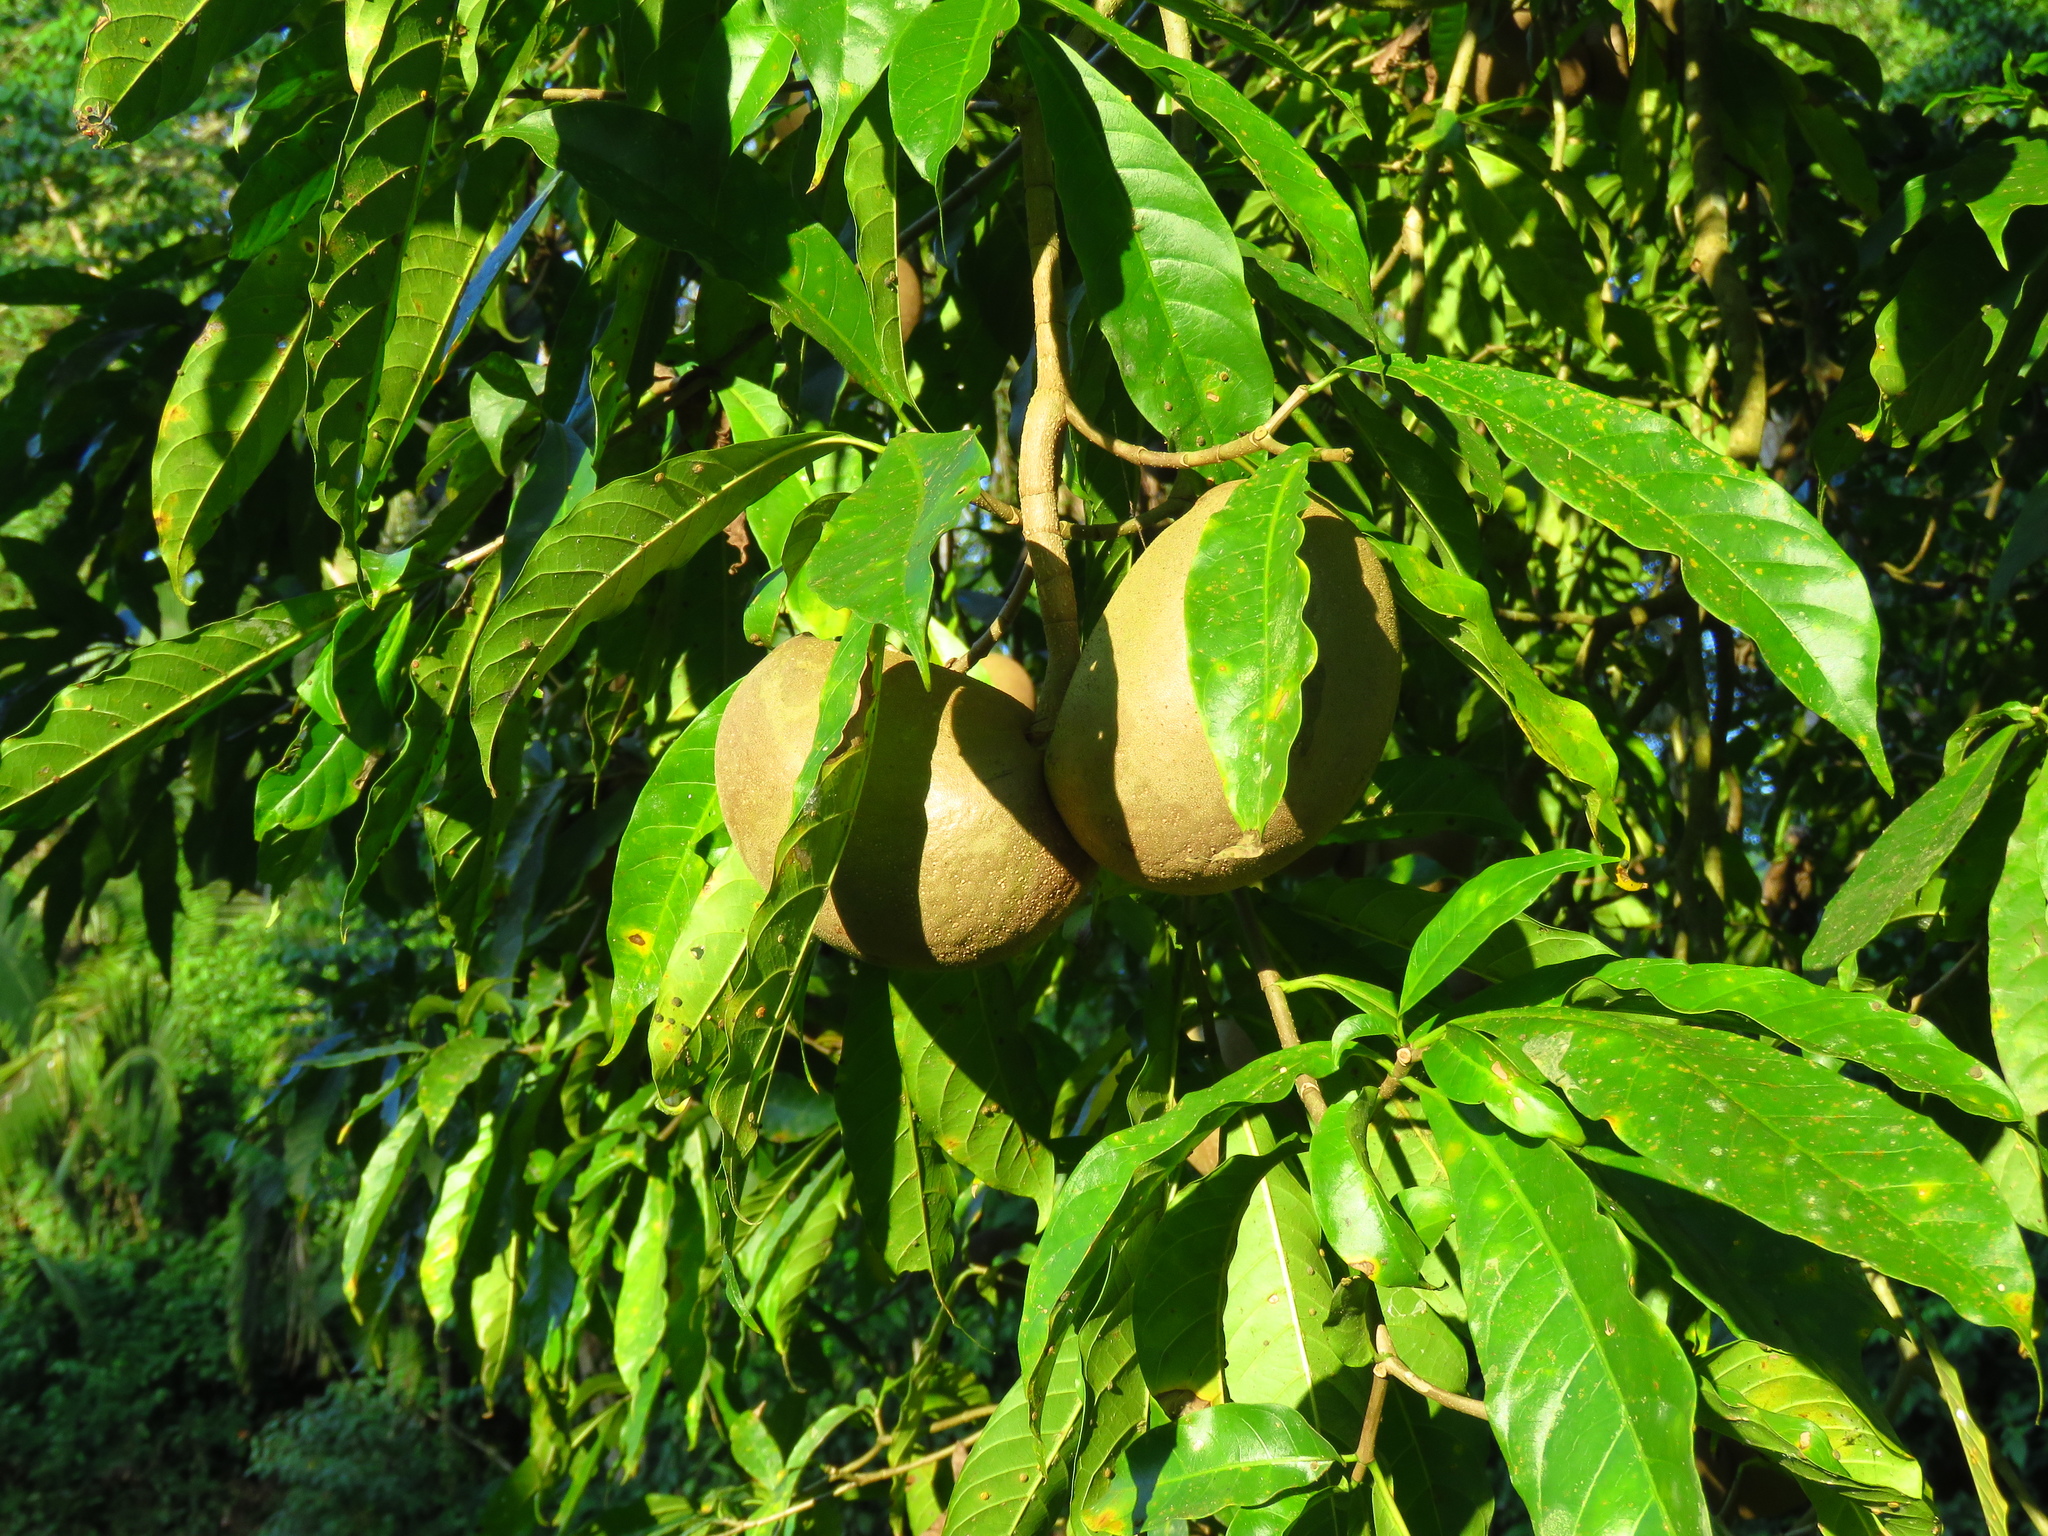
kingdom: Plantae
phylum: Tracheophyta
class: Magnoliopsida
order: Gentianales
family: Apocynaceae
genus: Tabernaemontana
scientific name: Tabernaemontana donnell-smithii
